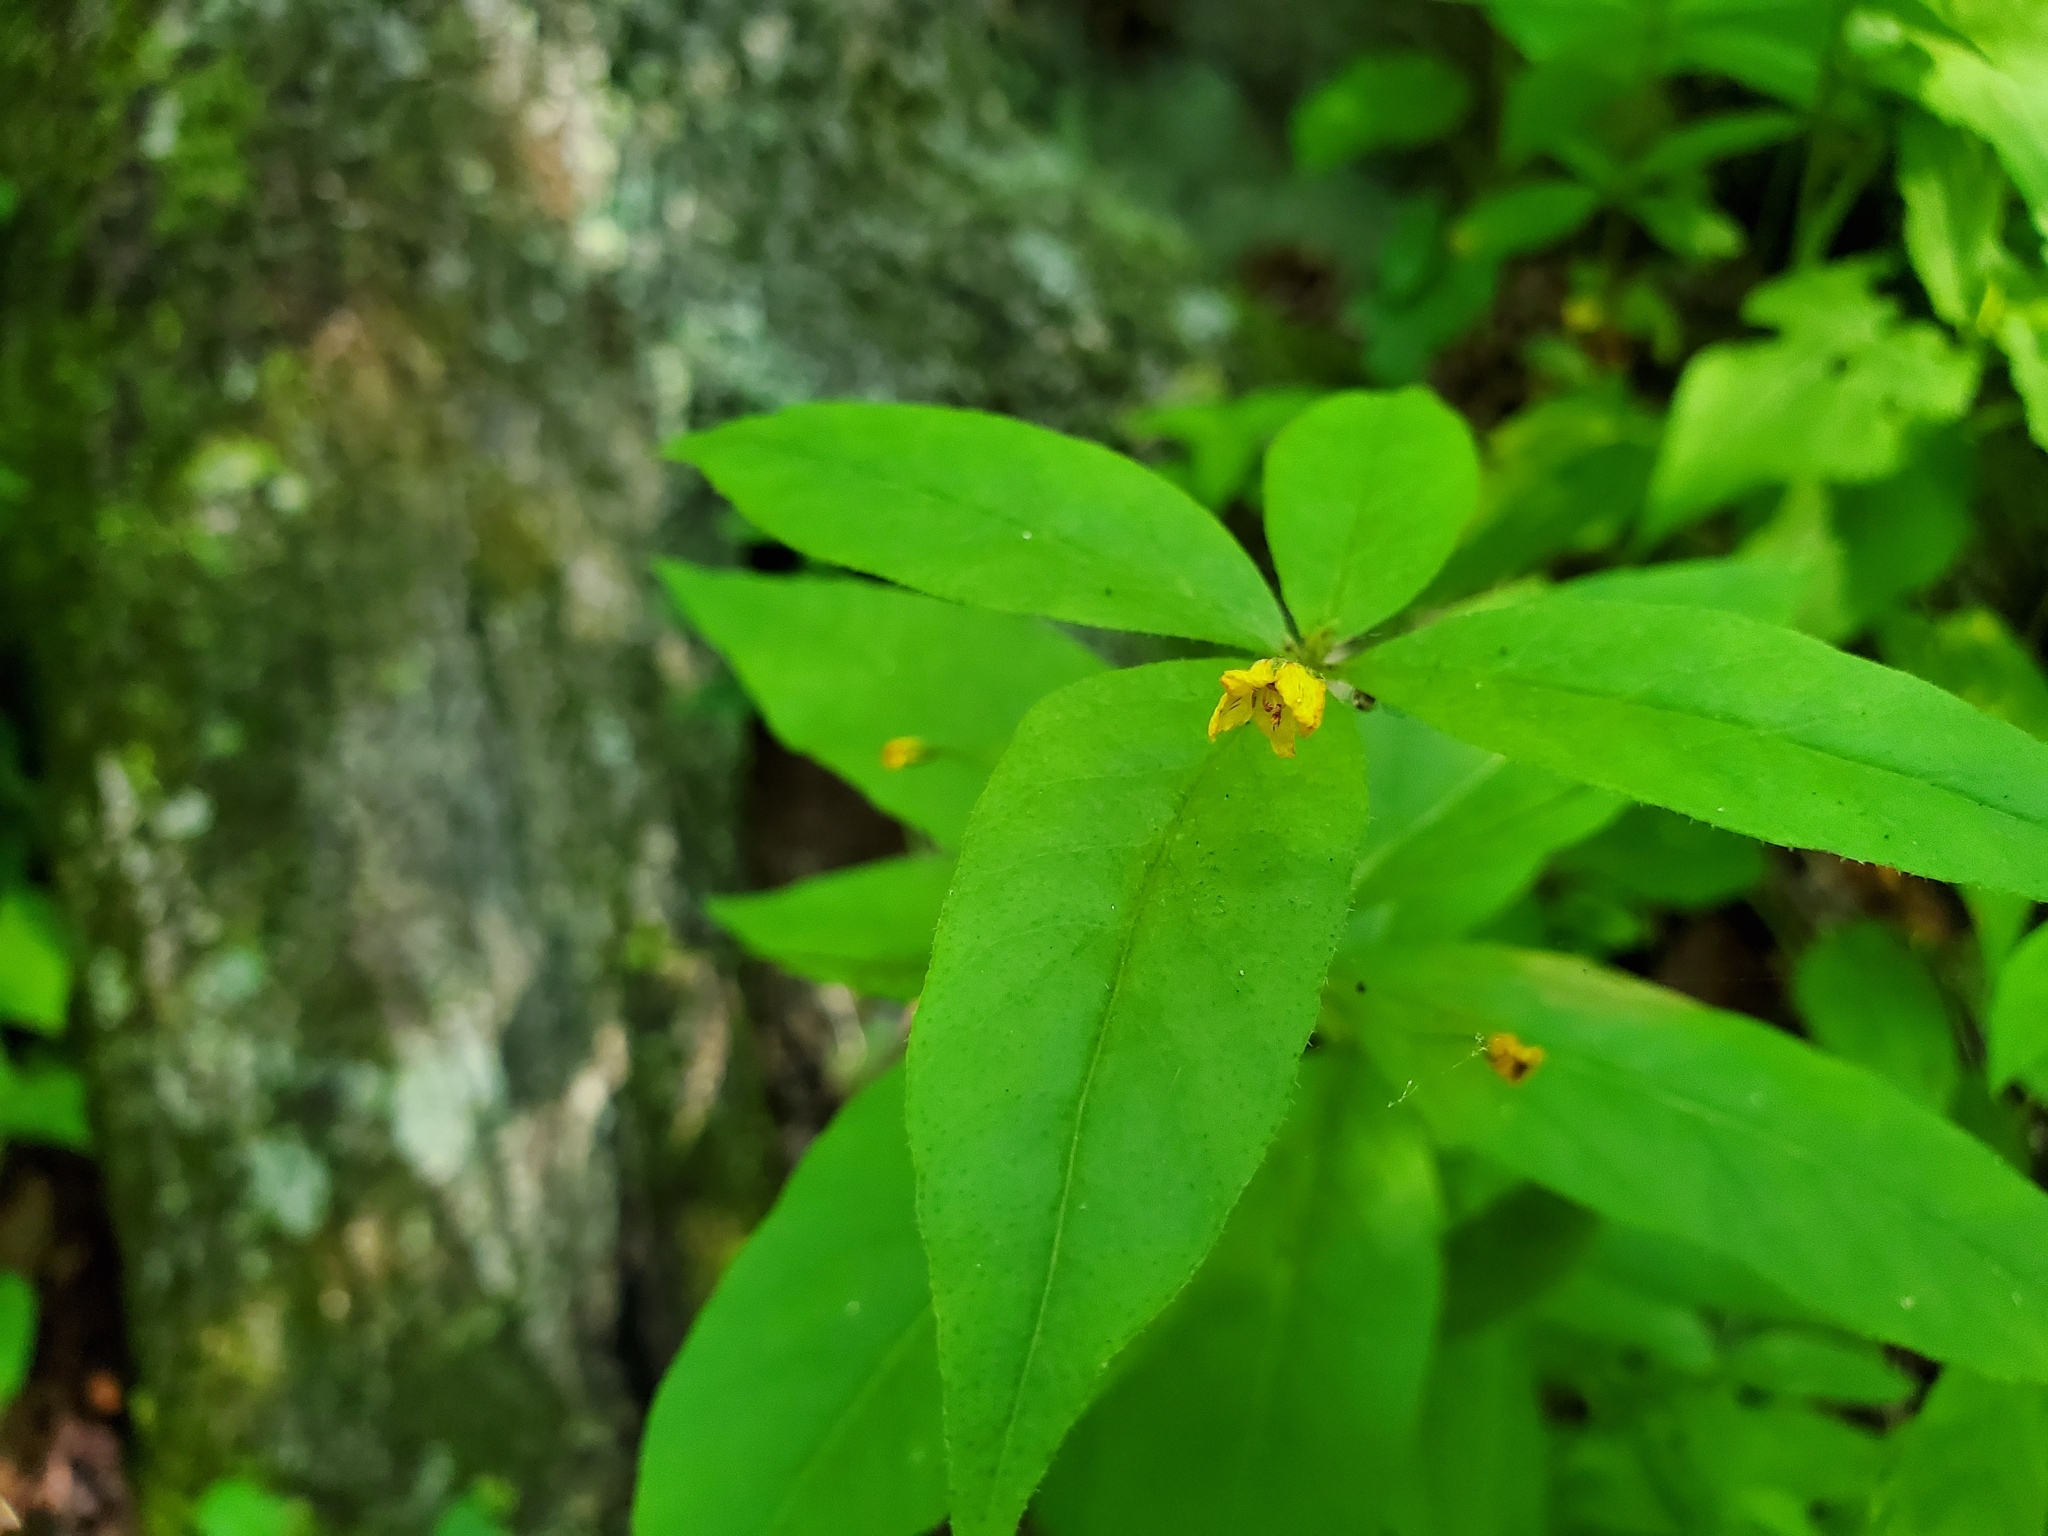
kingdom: Plantae
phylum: Tracheophyta
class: Magnoliopsida
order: Ericales
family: Primulaceae
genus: Lysimachia
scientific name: Lysimachia quadrifolia
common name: Whorled loosestrife
